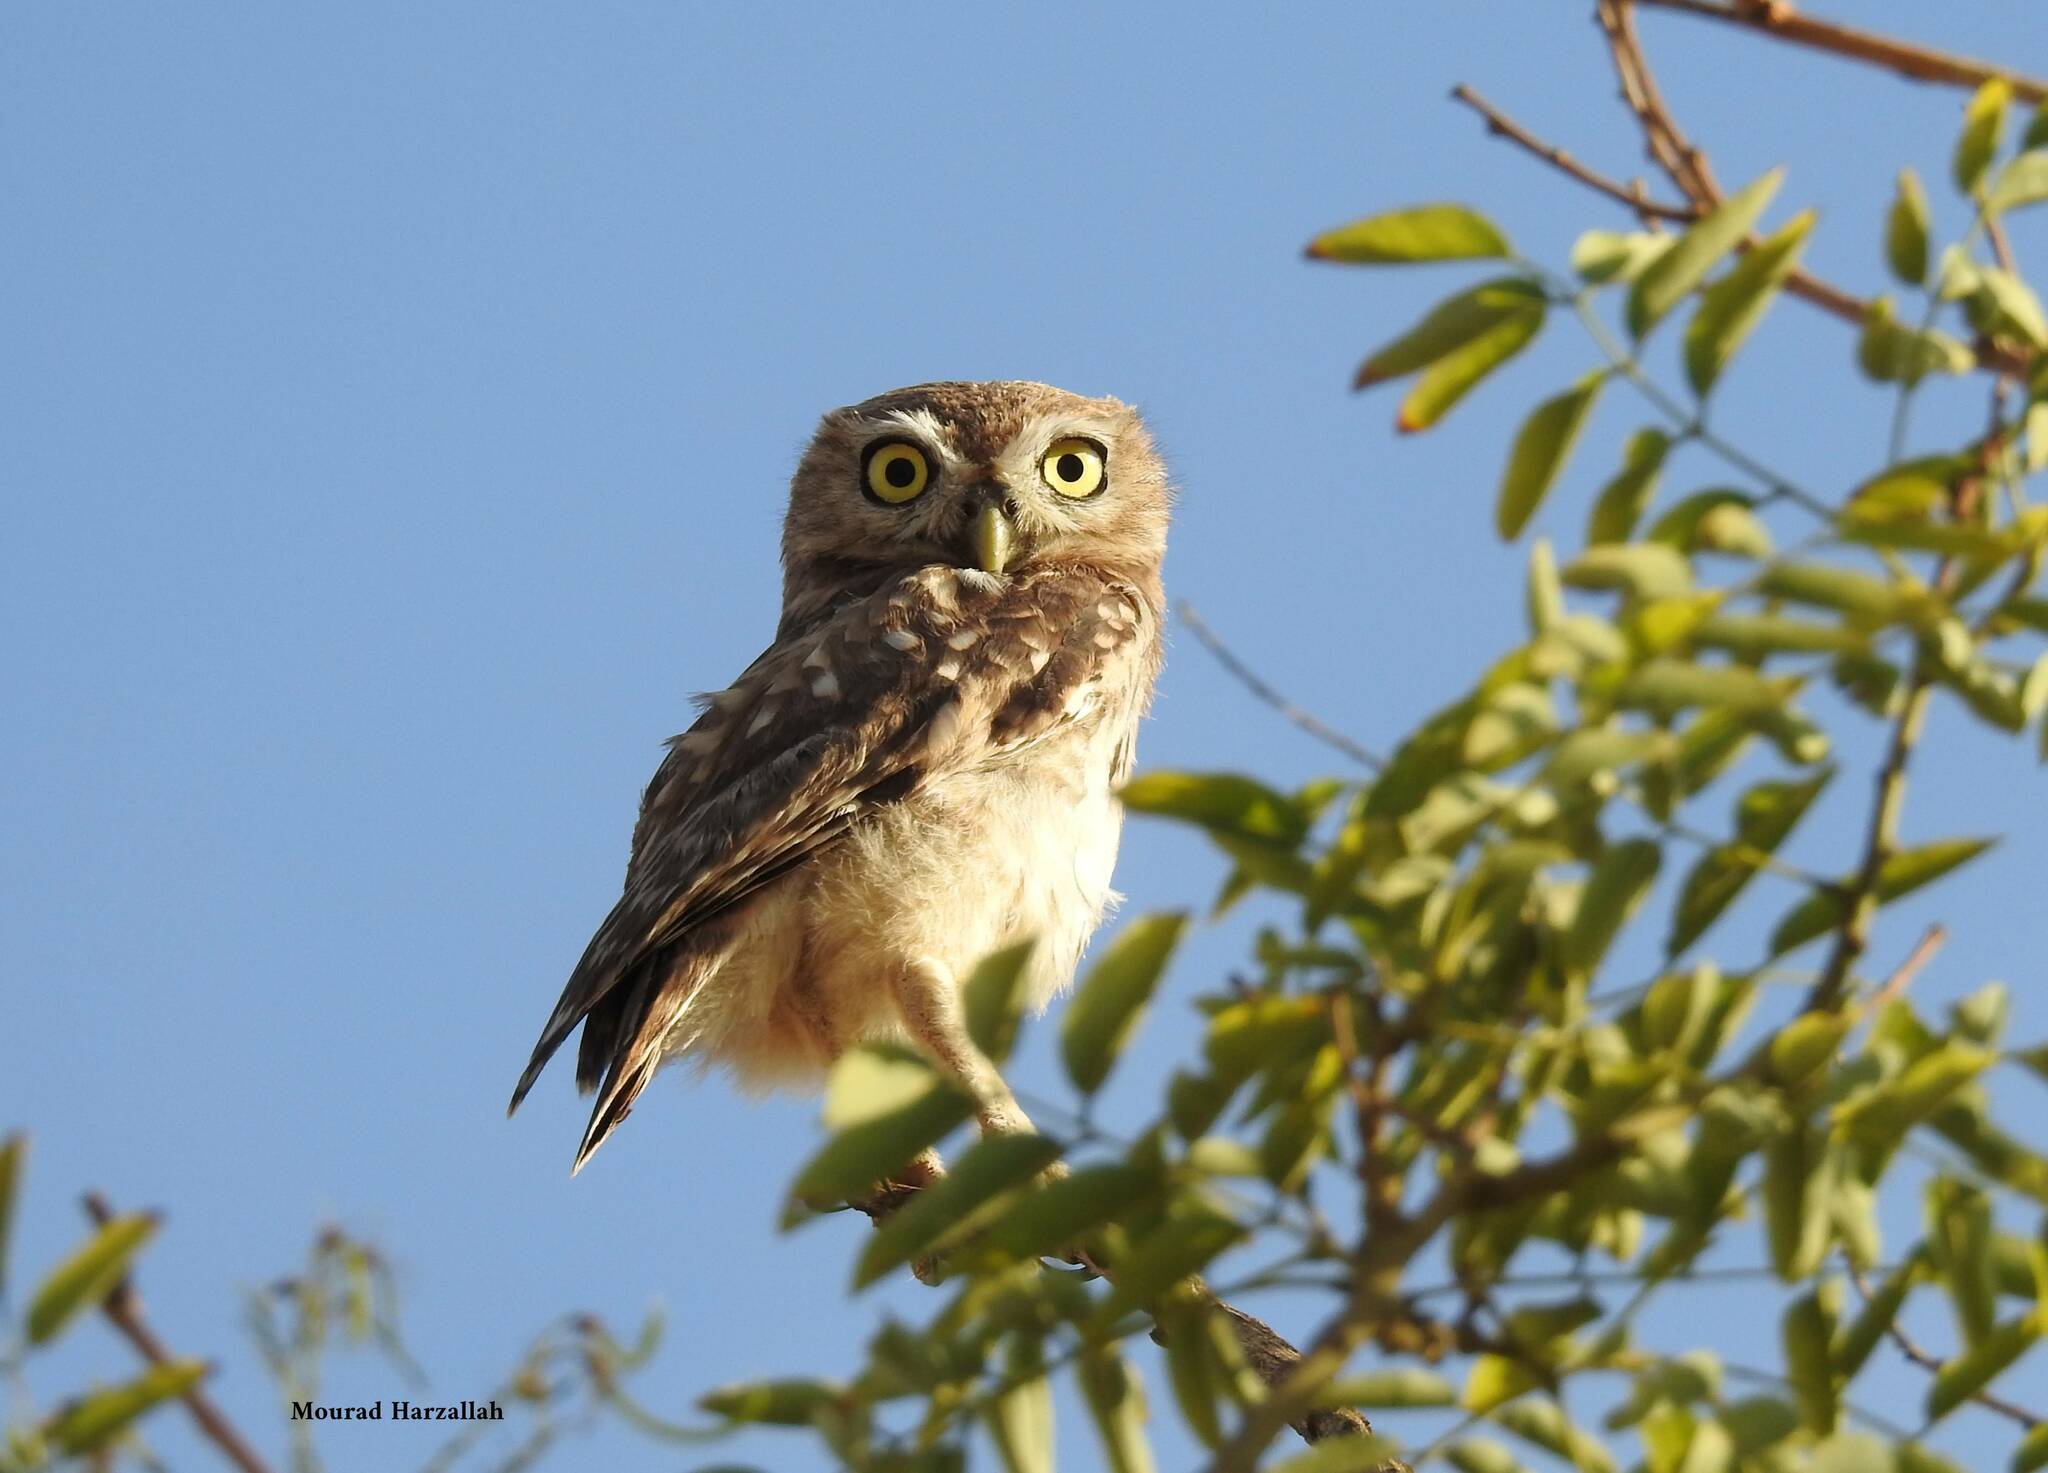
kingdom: Animalia
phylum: Chordata
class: Aves
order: Strigiformes
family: Strigidae
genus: Athene
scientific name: Athene noctua
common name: Little owl
